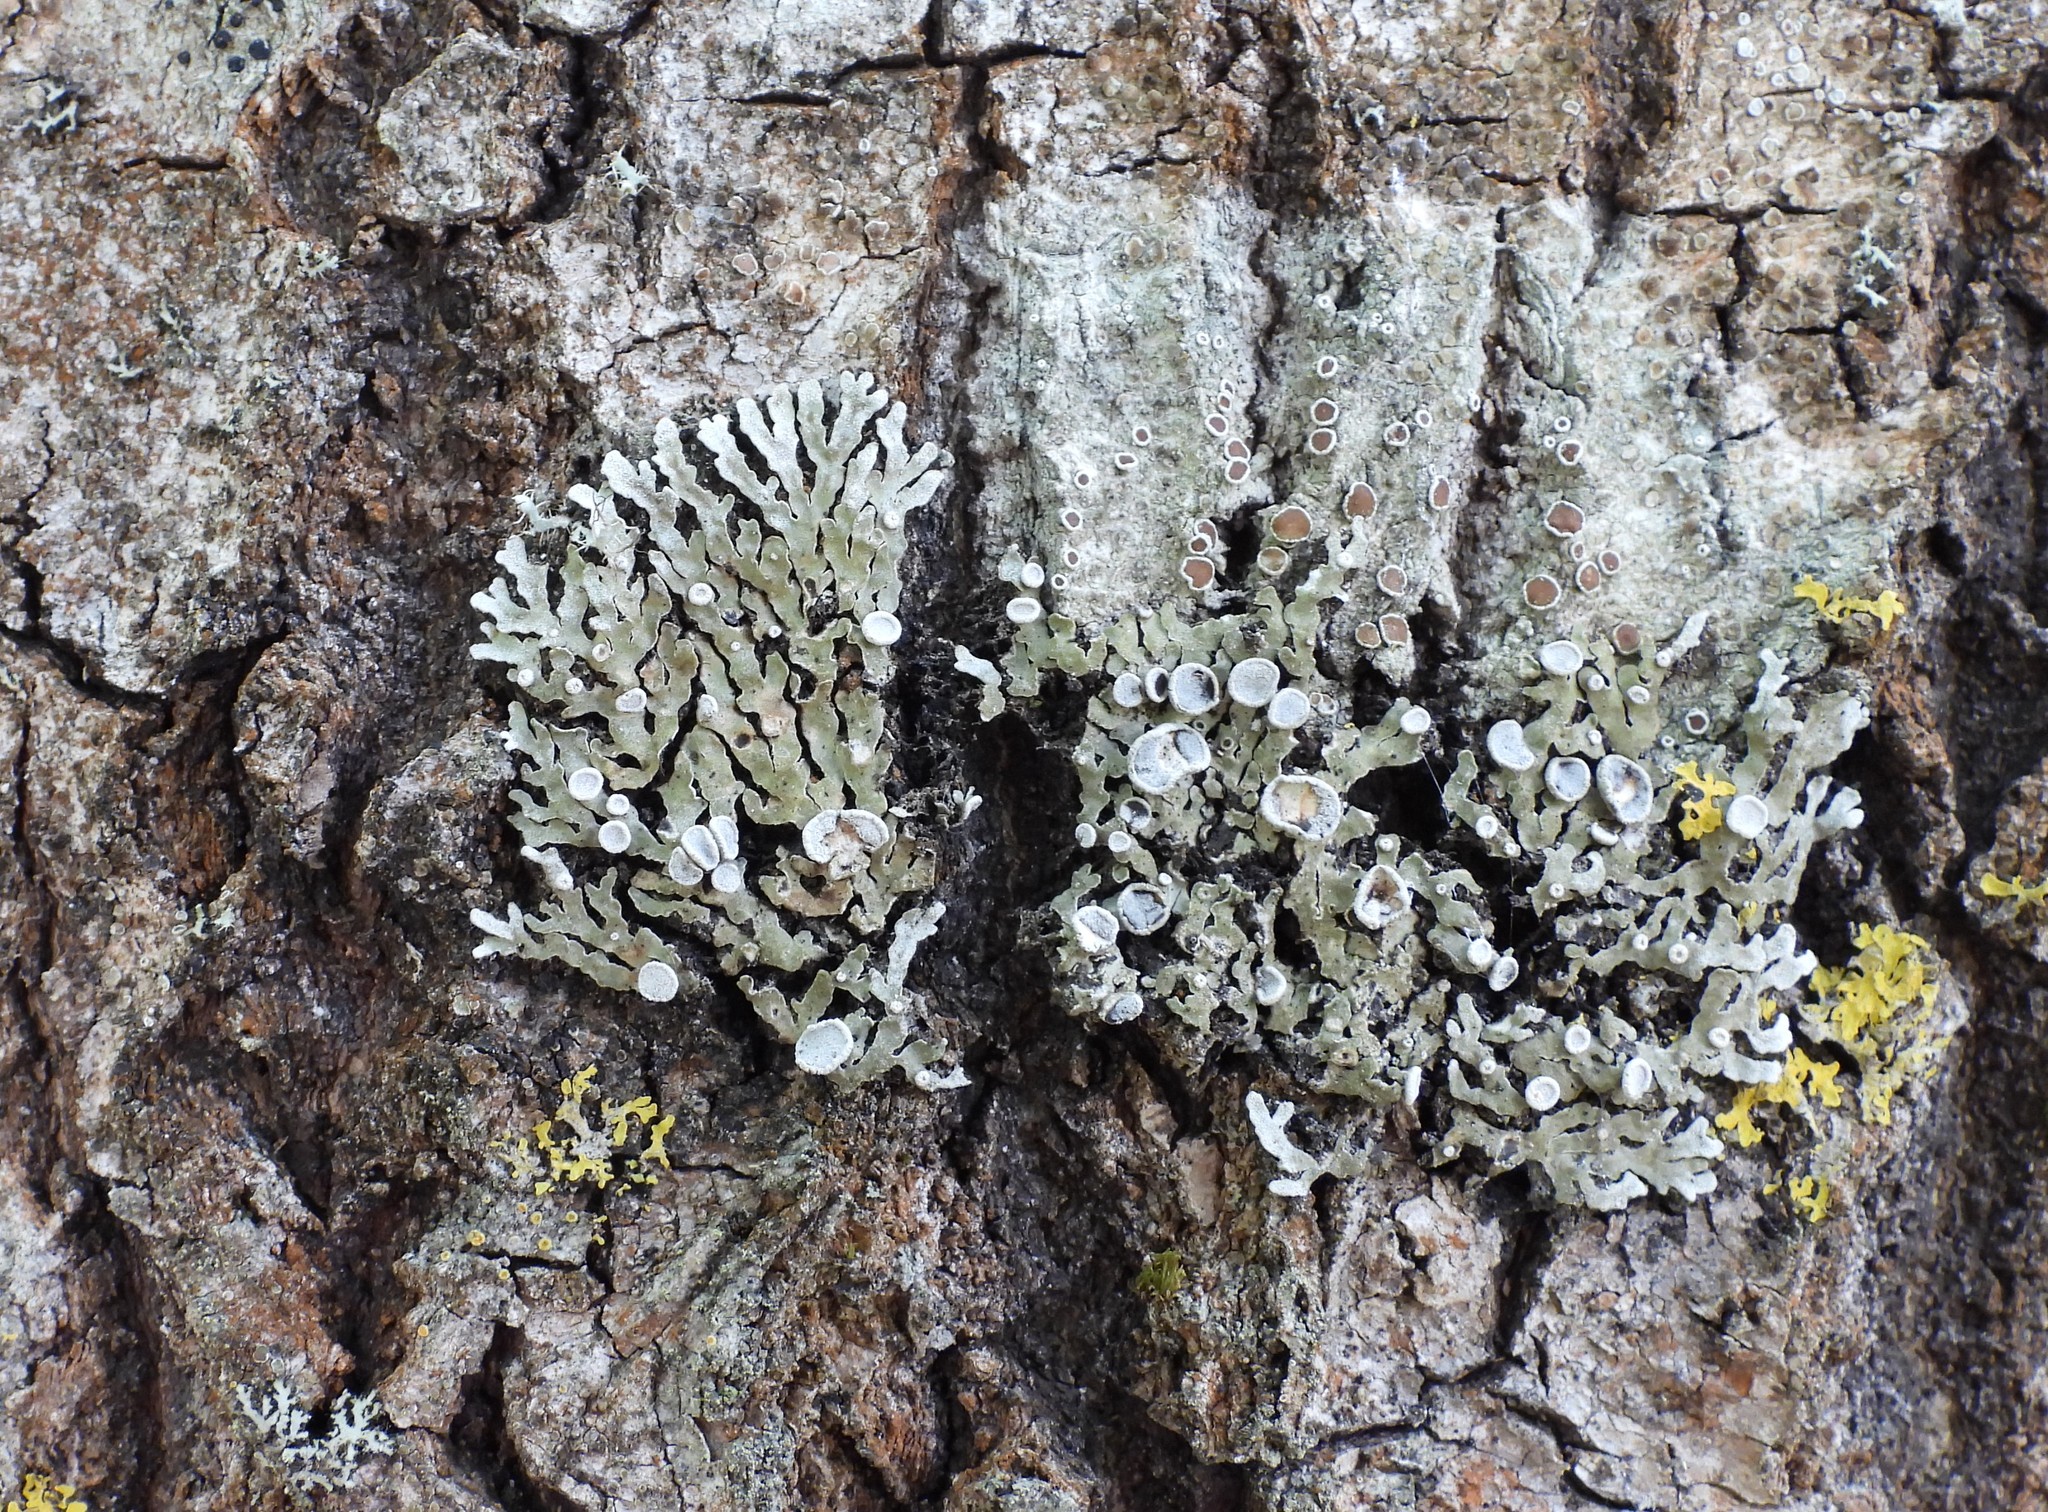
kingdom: Fungi
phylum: Ascomycota
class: Lecanoromycetes
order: Caliciales
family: Physciaceae
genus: Physconia
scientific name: Physconia distorta
